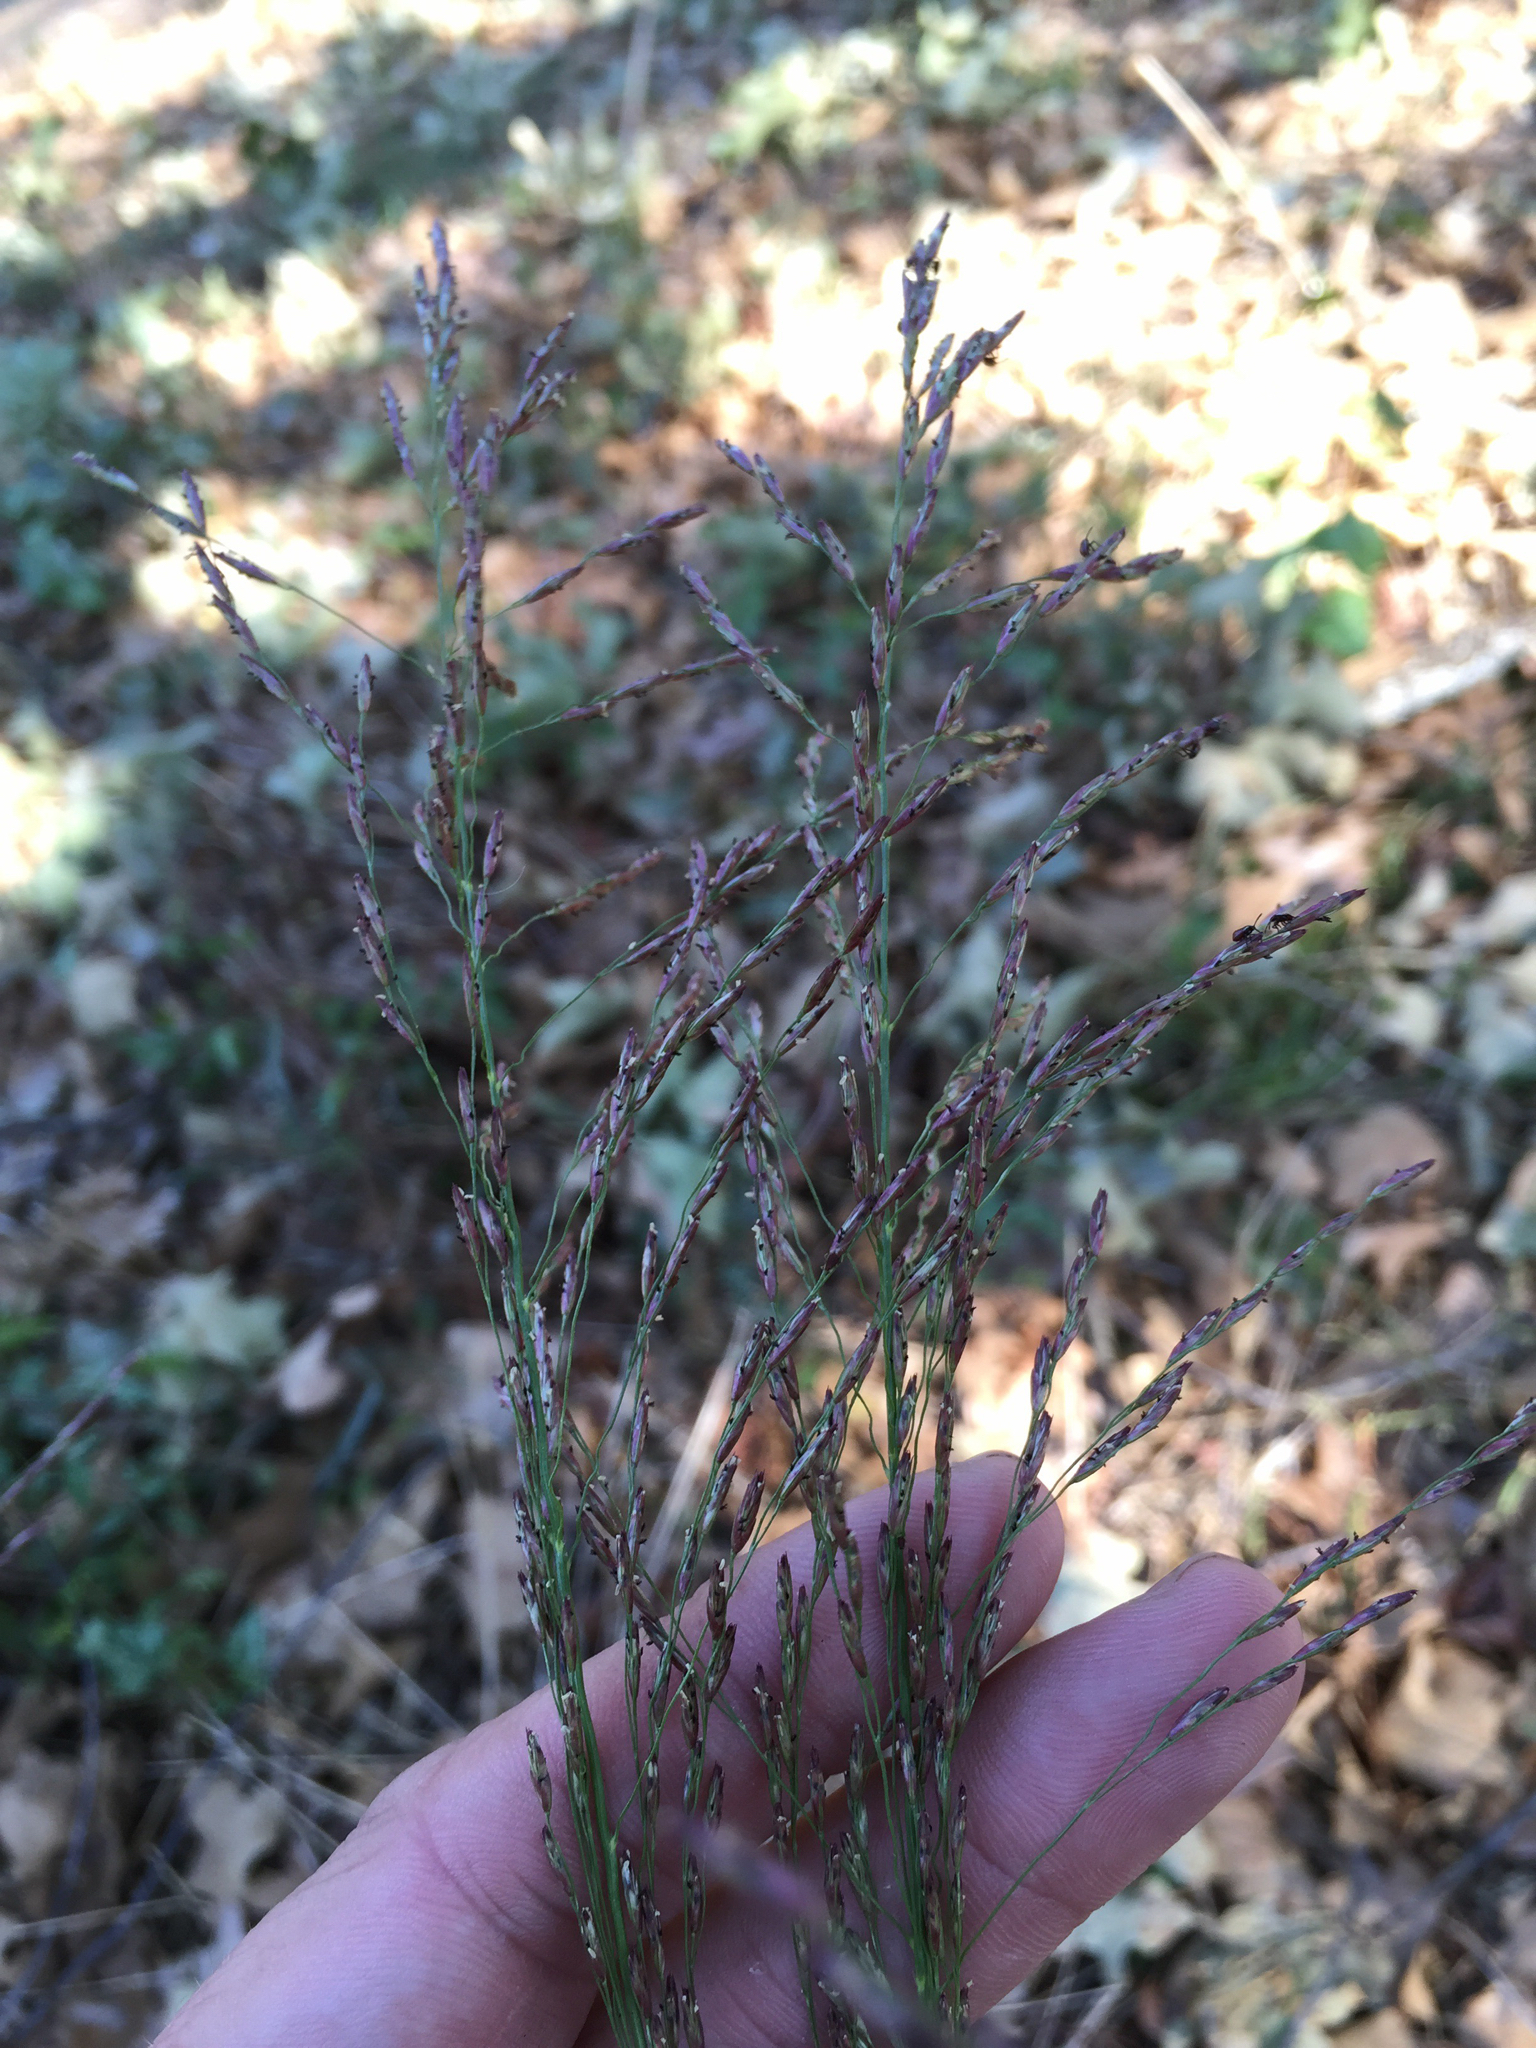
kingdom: Plantae
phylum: Tracheophyta
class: Liliopsida
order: Poales
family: Poaceae
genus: Tridens
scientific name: Tridens flavus
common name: Purpletop
